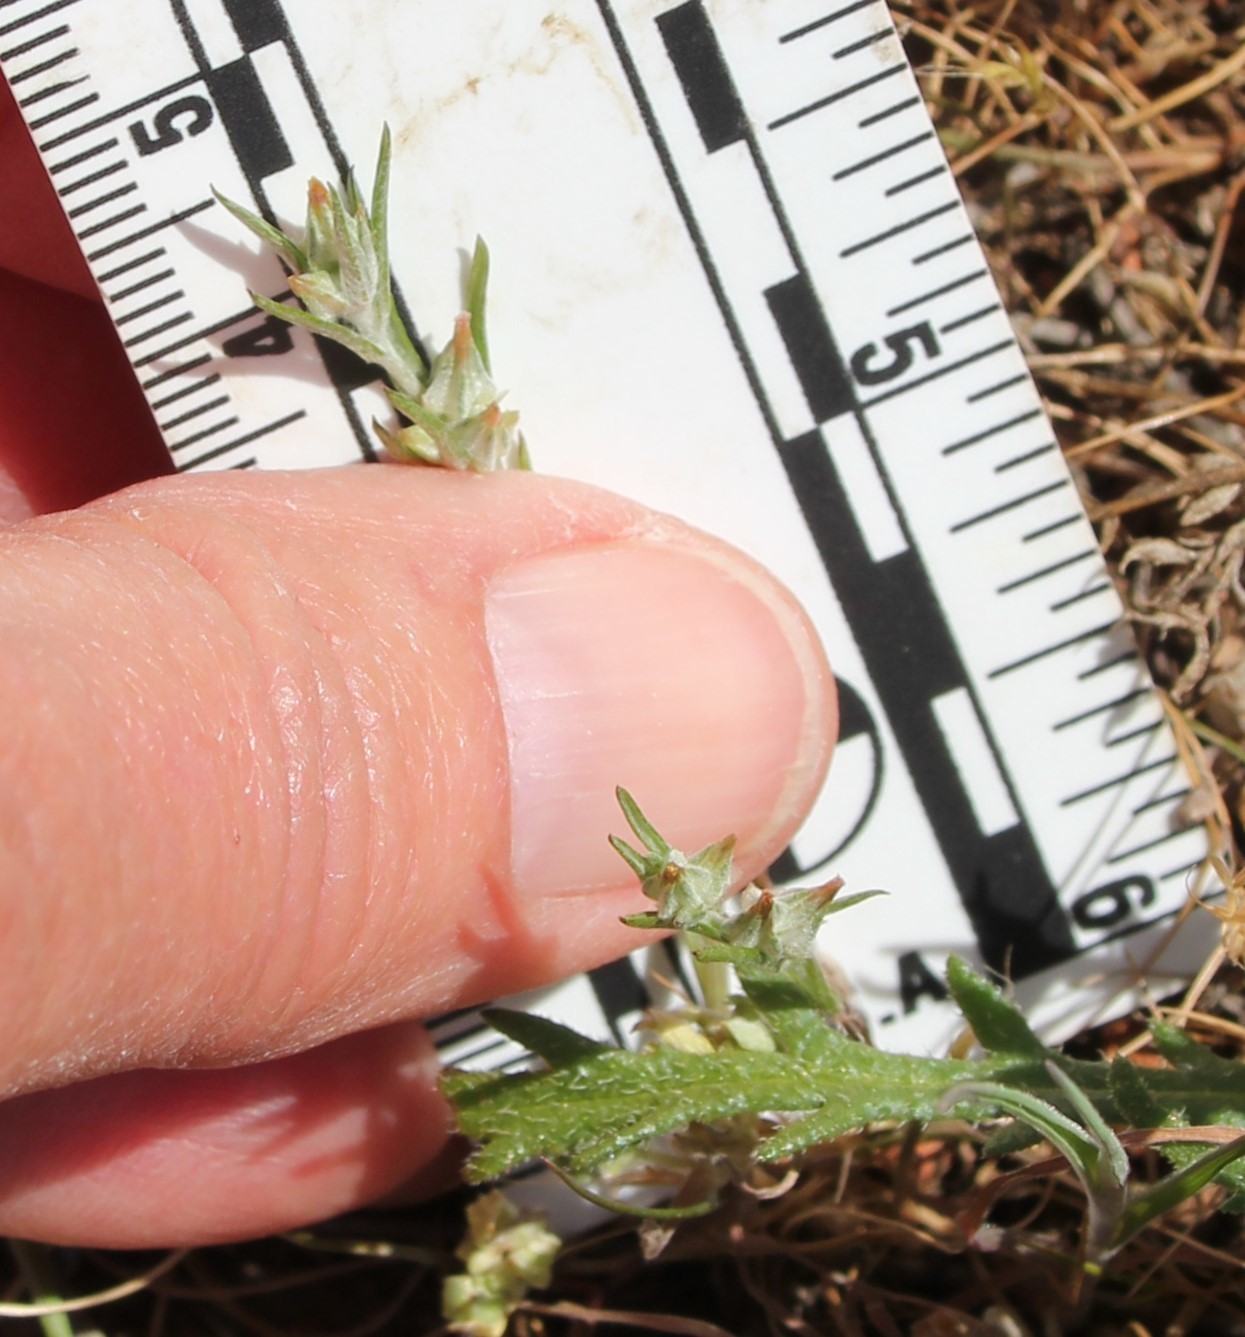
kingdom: Plantae
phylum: Tracheophyta
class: Magnoliopsida
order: Asterales
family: Asteraceae
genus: Logfia
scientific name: Logfia gallica
